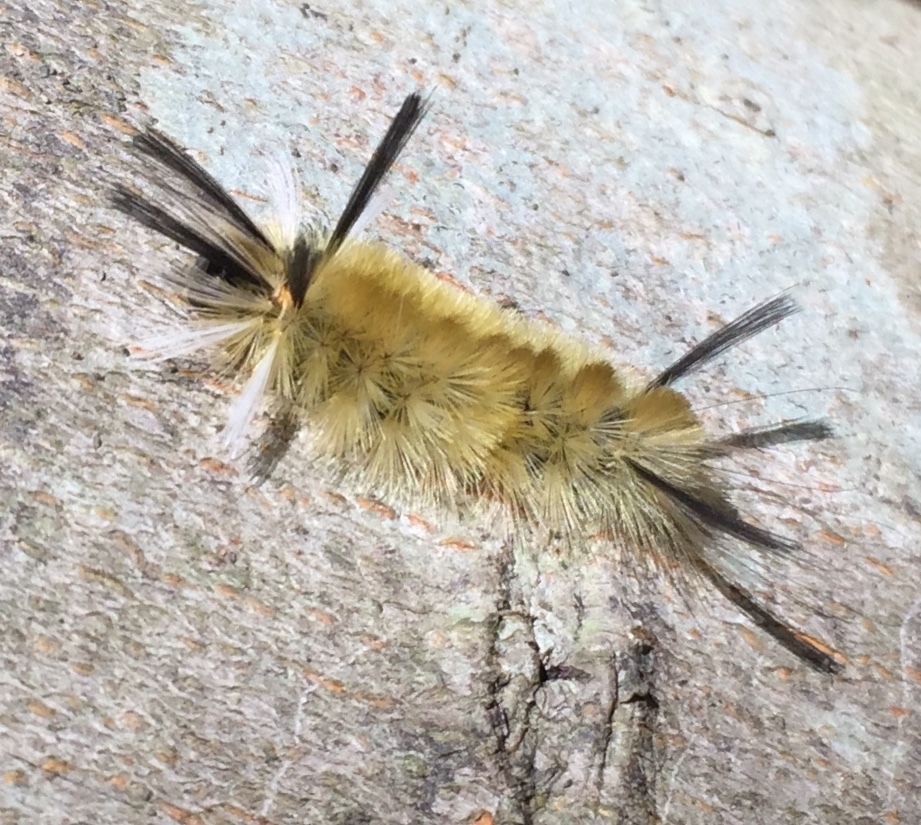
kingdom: Animalia
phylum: Arthropoda
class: Insecta
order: Lepidoptera
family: Erebidae
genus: Halysidota
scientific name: Halysidota tessellaris
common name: Banded tussock moth
